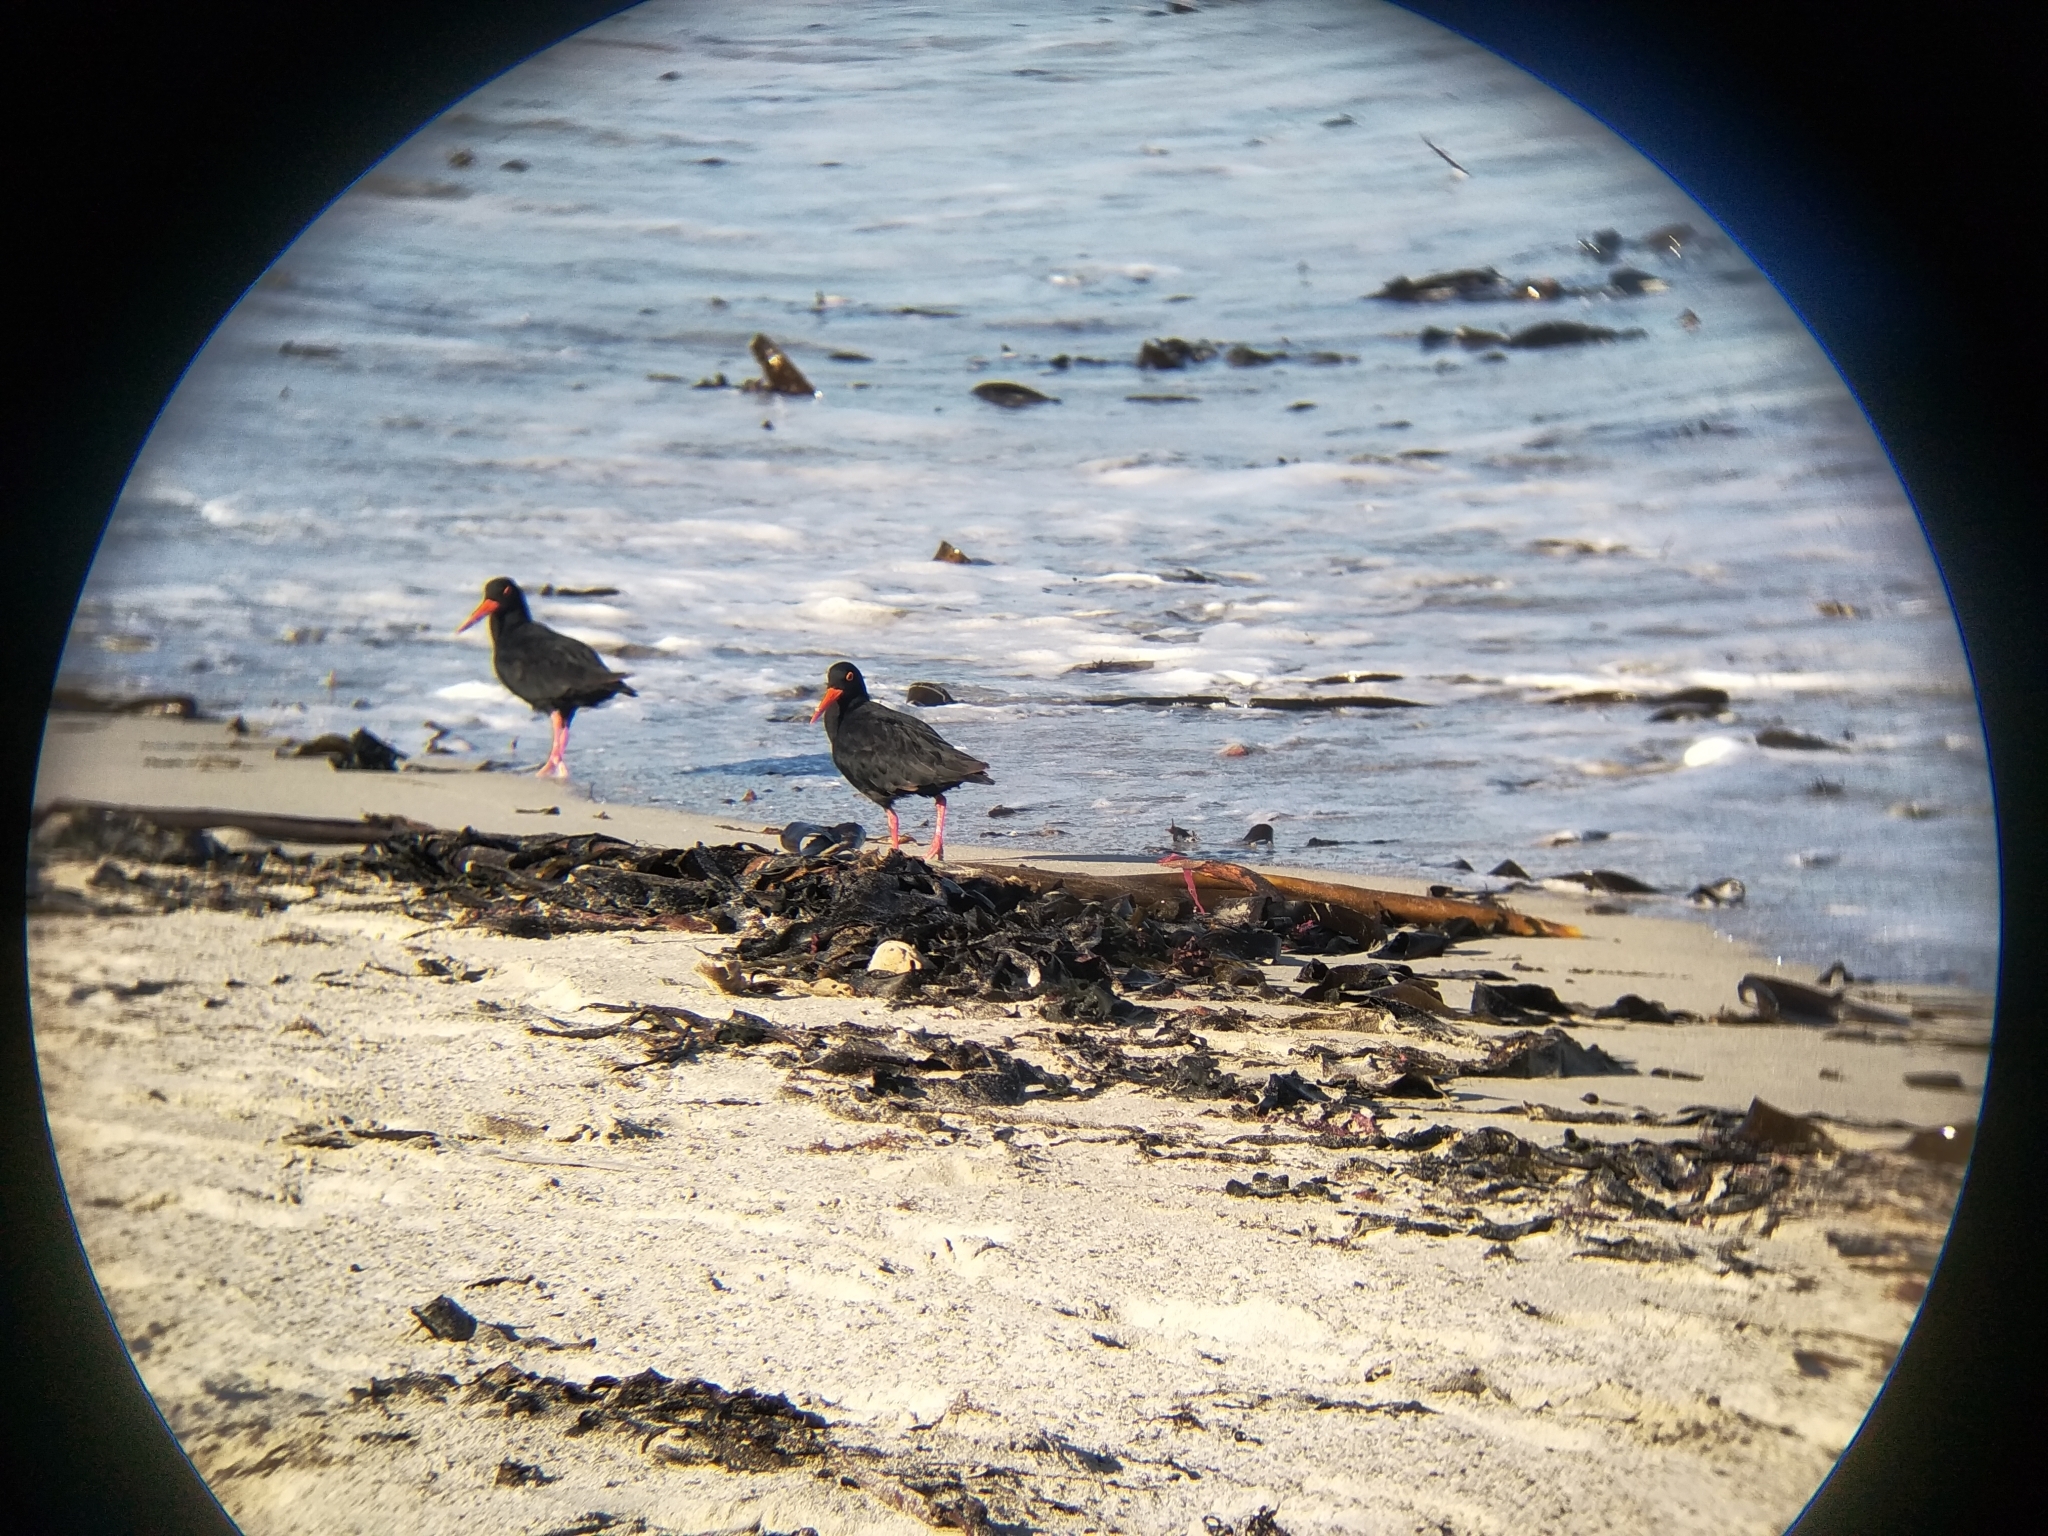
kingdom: Animalia
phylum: Chordata
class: Aves
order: Charadriiformes
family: Haematopodidae
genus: Haematopus
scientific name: Haematopus moquini
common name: African oystercatcher
